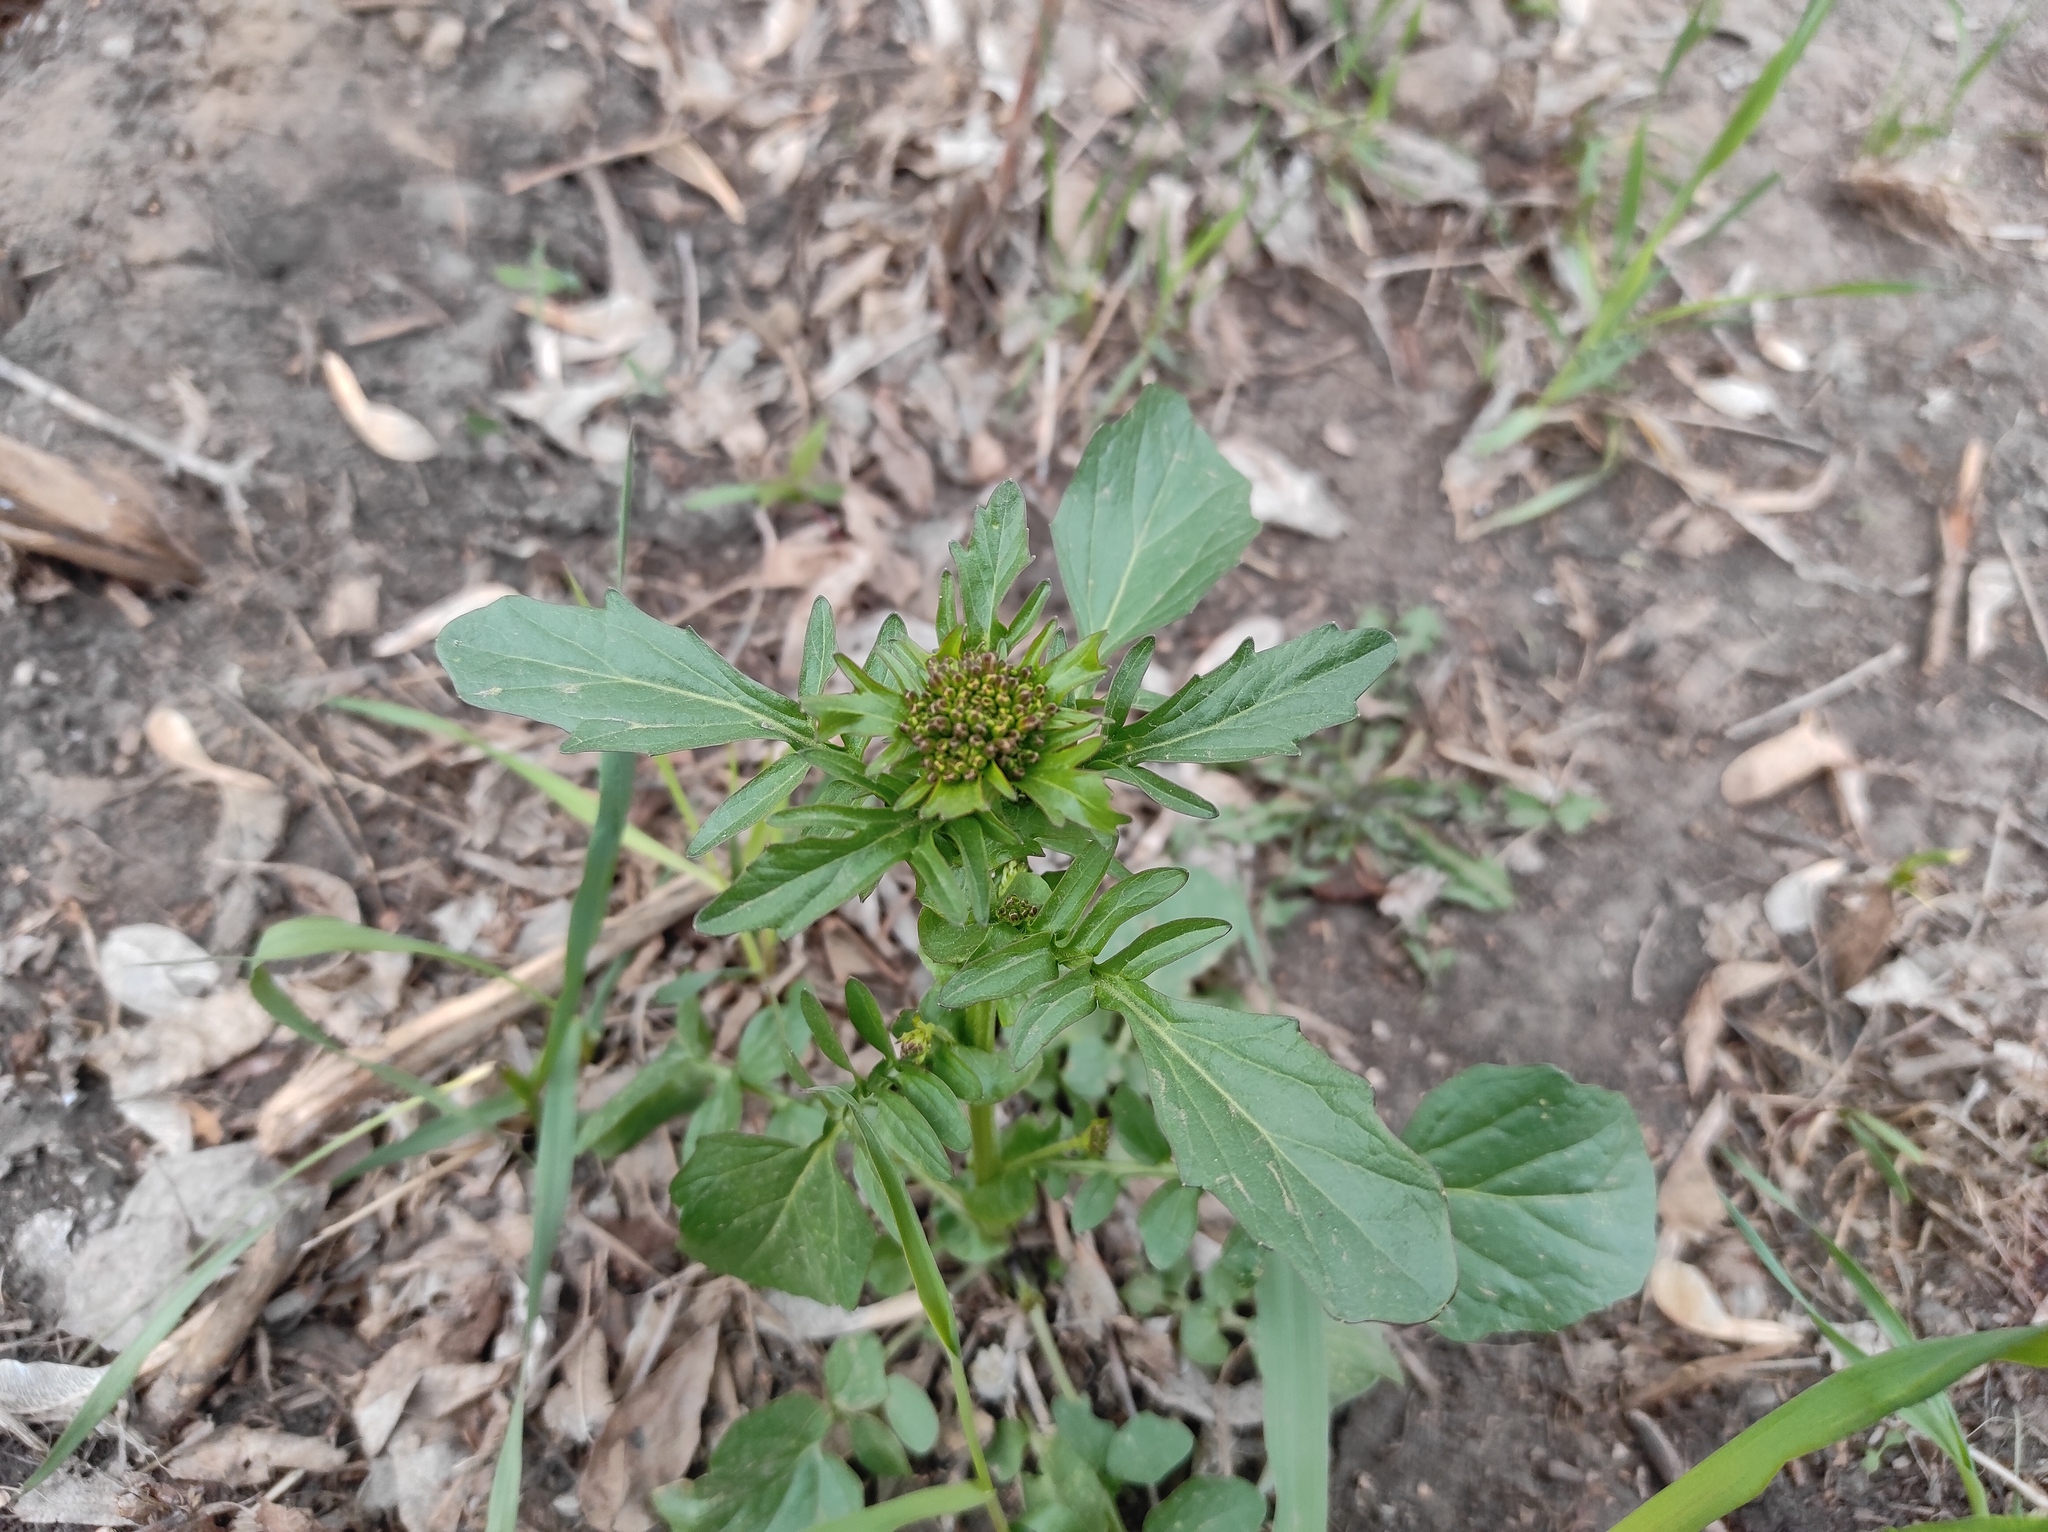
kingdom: Plantae
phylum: Tracheophyta
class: Magnoliopsida
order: Brassicales
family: Brassicaceae
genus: Barbarea
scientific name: Barbarea vulgaris
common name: Cressy-greens
